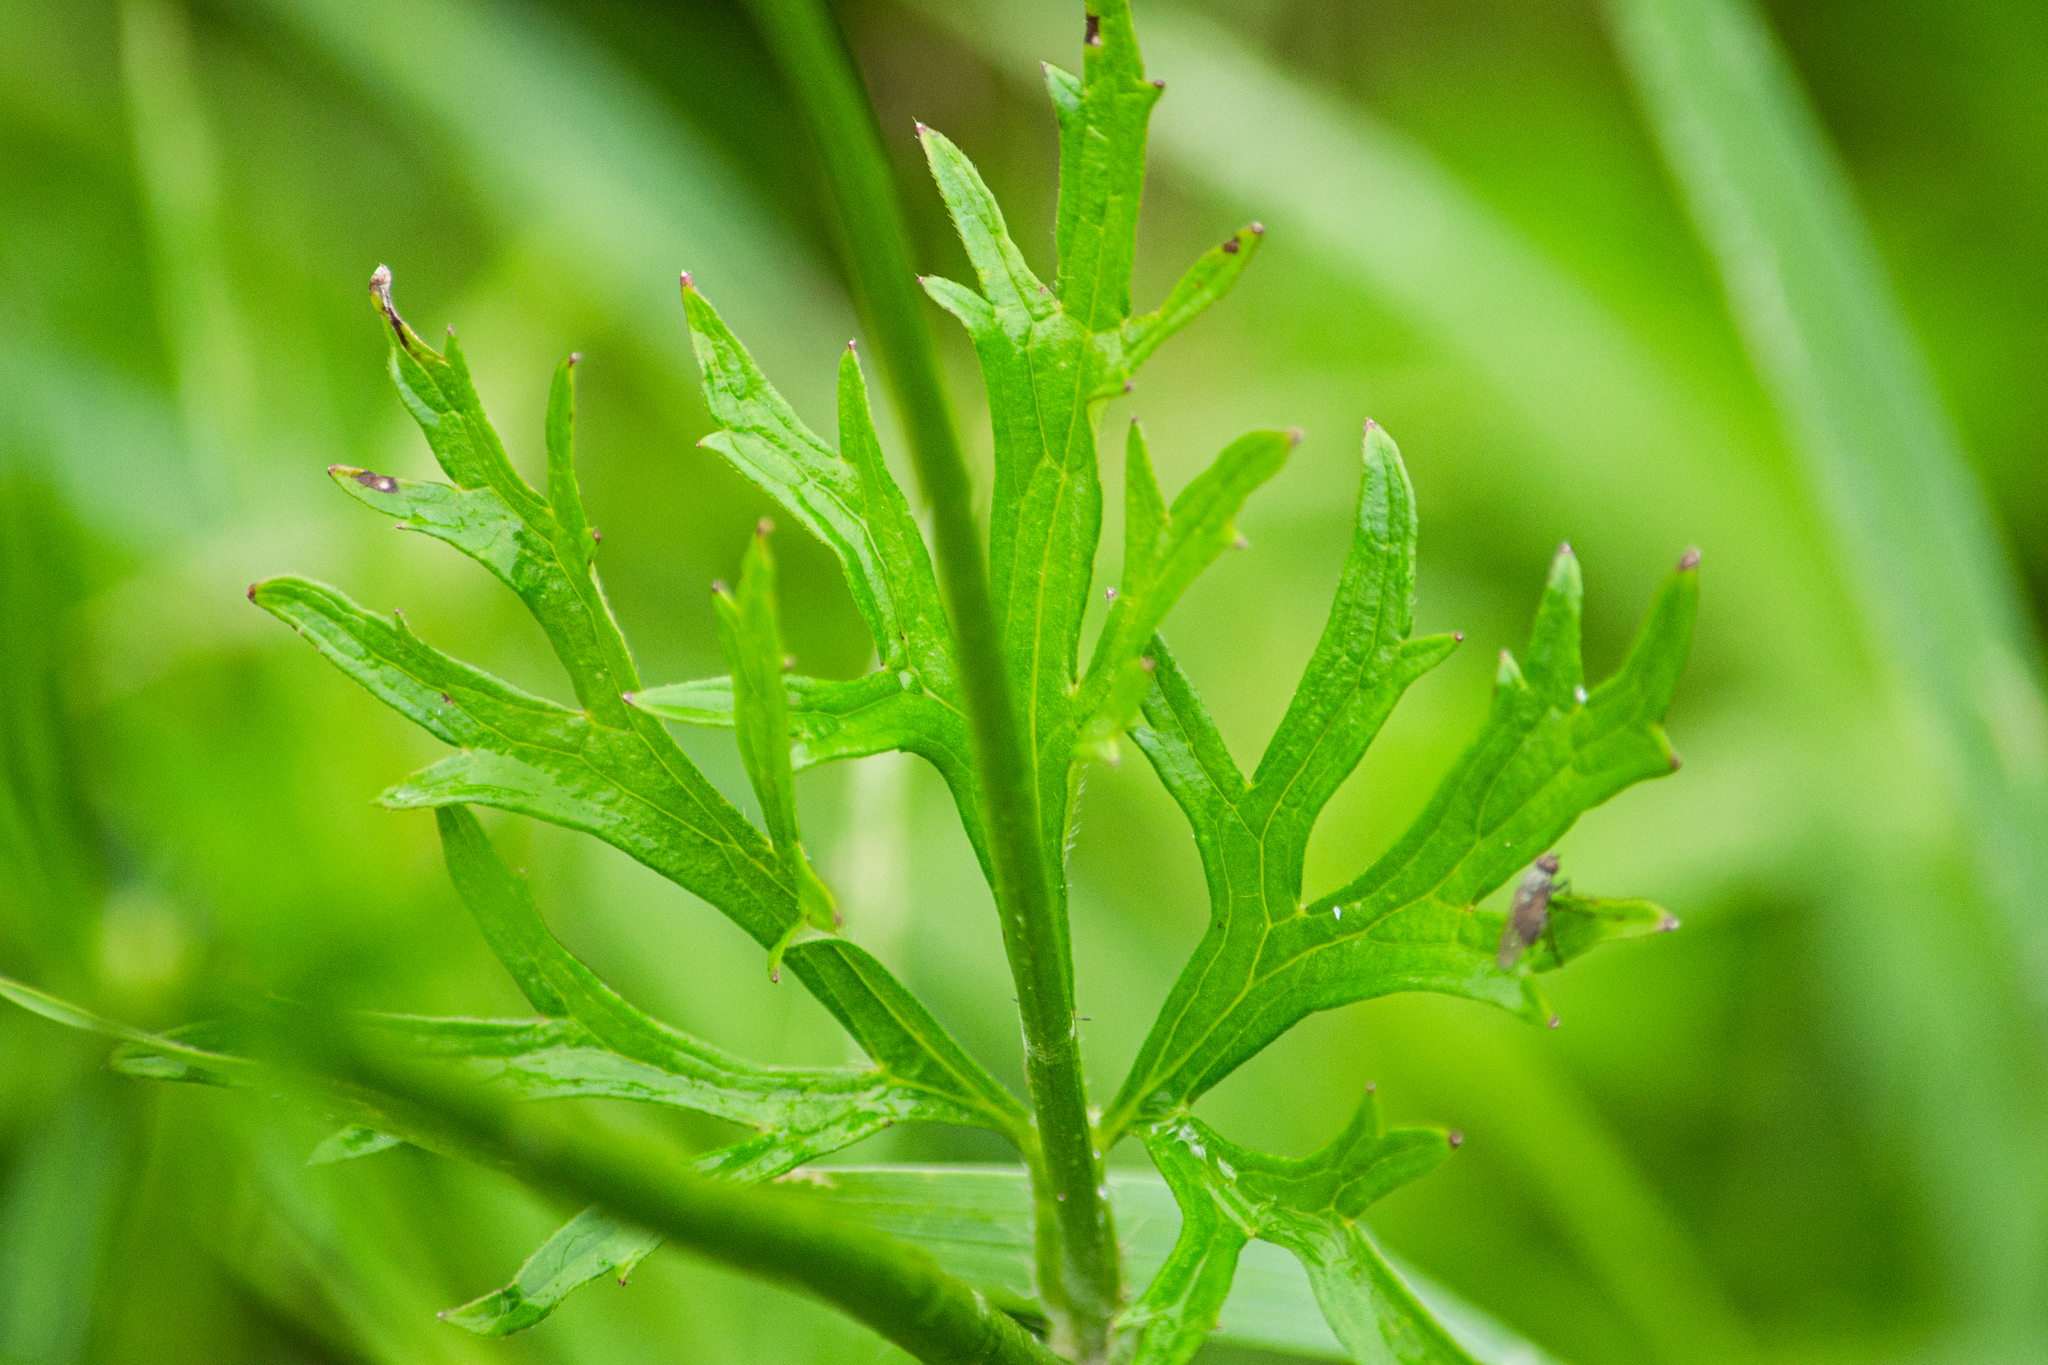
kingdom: Plantae
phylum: Tracheophyta
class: Magnoliopsida
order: Ranunculales
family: Ranunculaceae
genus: Ranunculus
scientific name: Ranunculus polyanthemos
